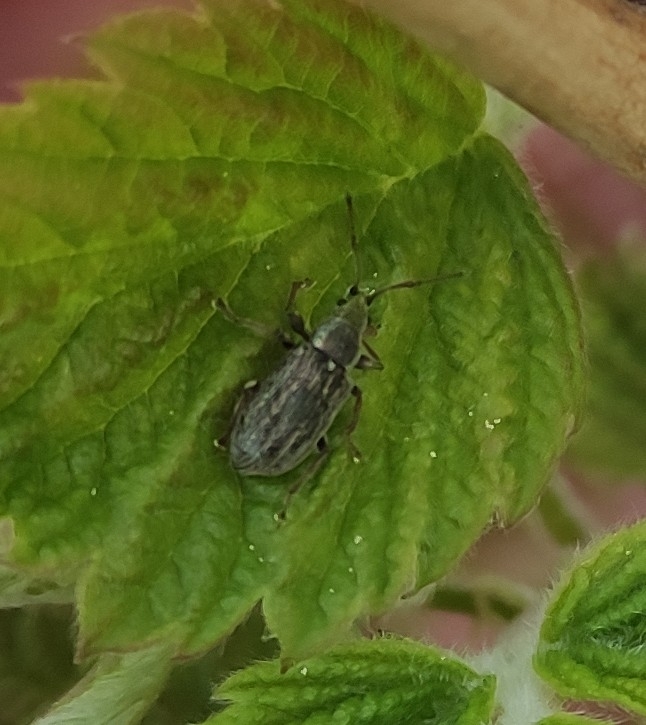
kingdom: Animalia
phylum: Arthropoda
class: Insecta
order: Coleoptera
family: Curculionidae
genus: Phyllobius
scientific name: Phyllobius pyri
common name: Common leaf weevil
